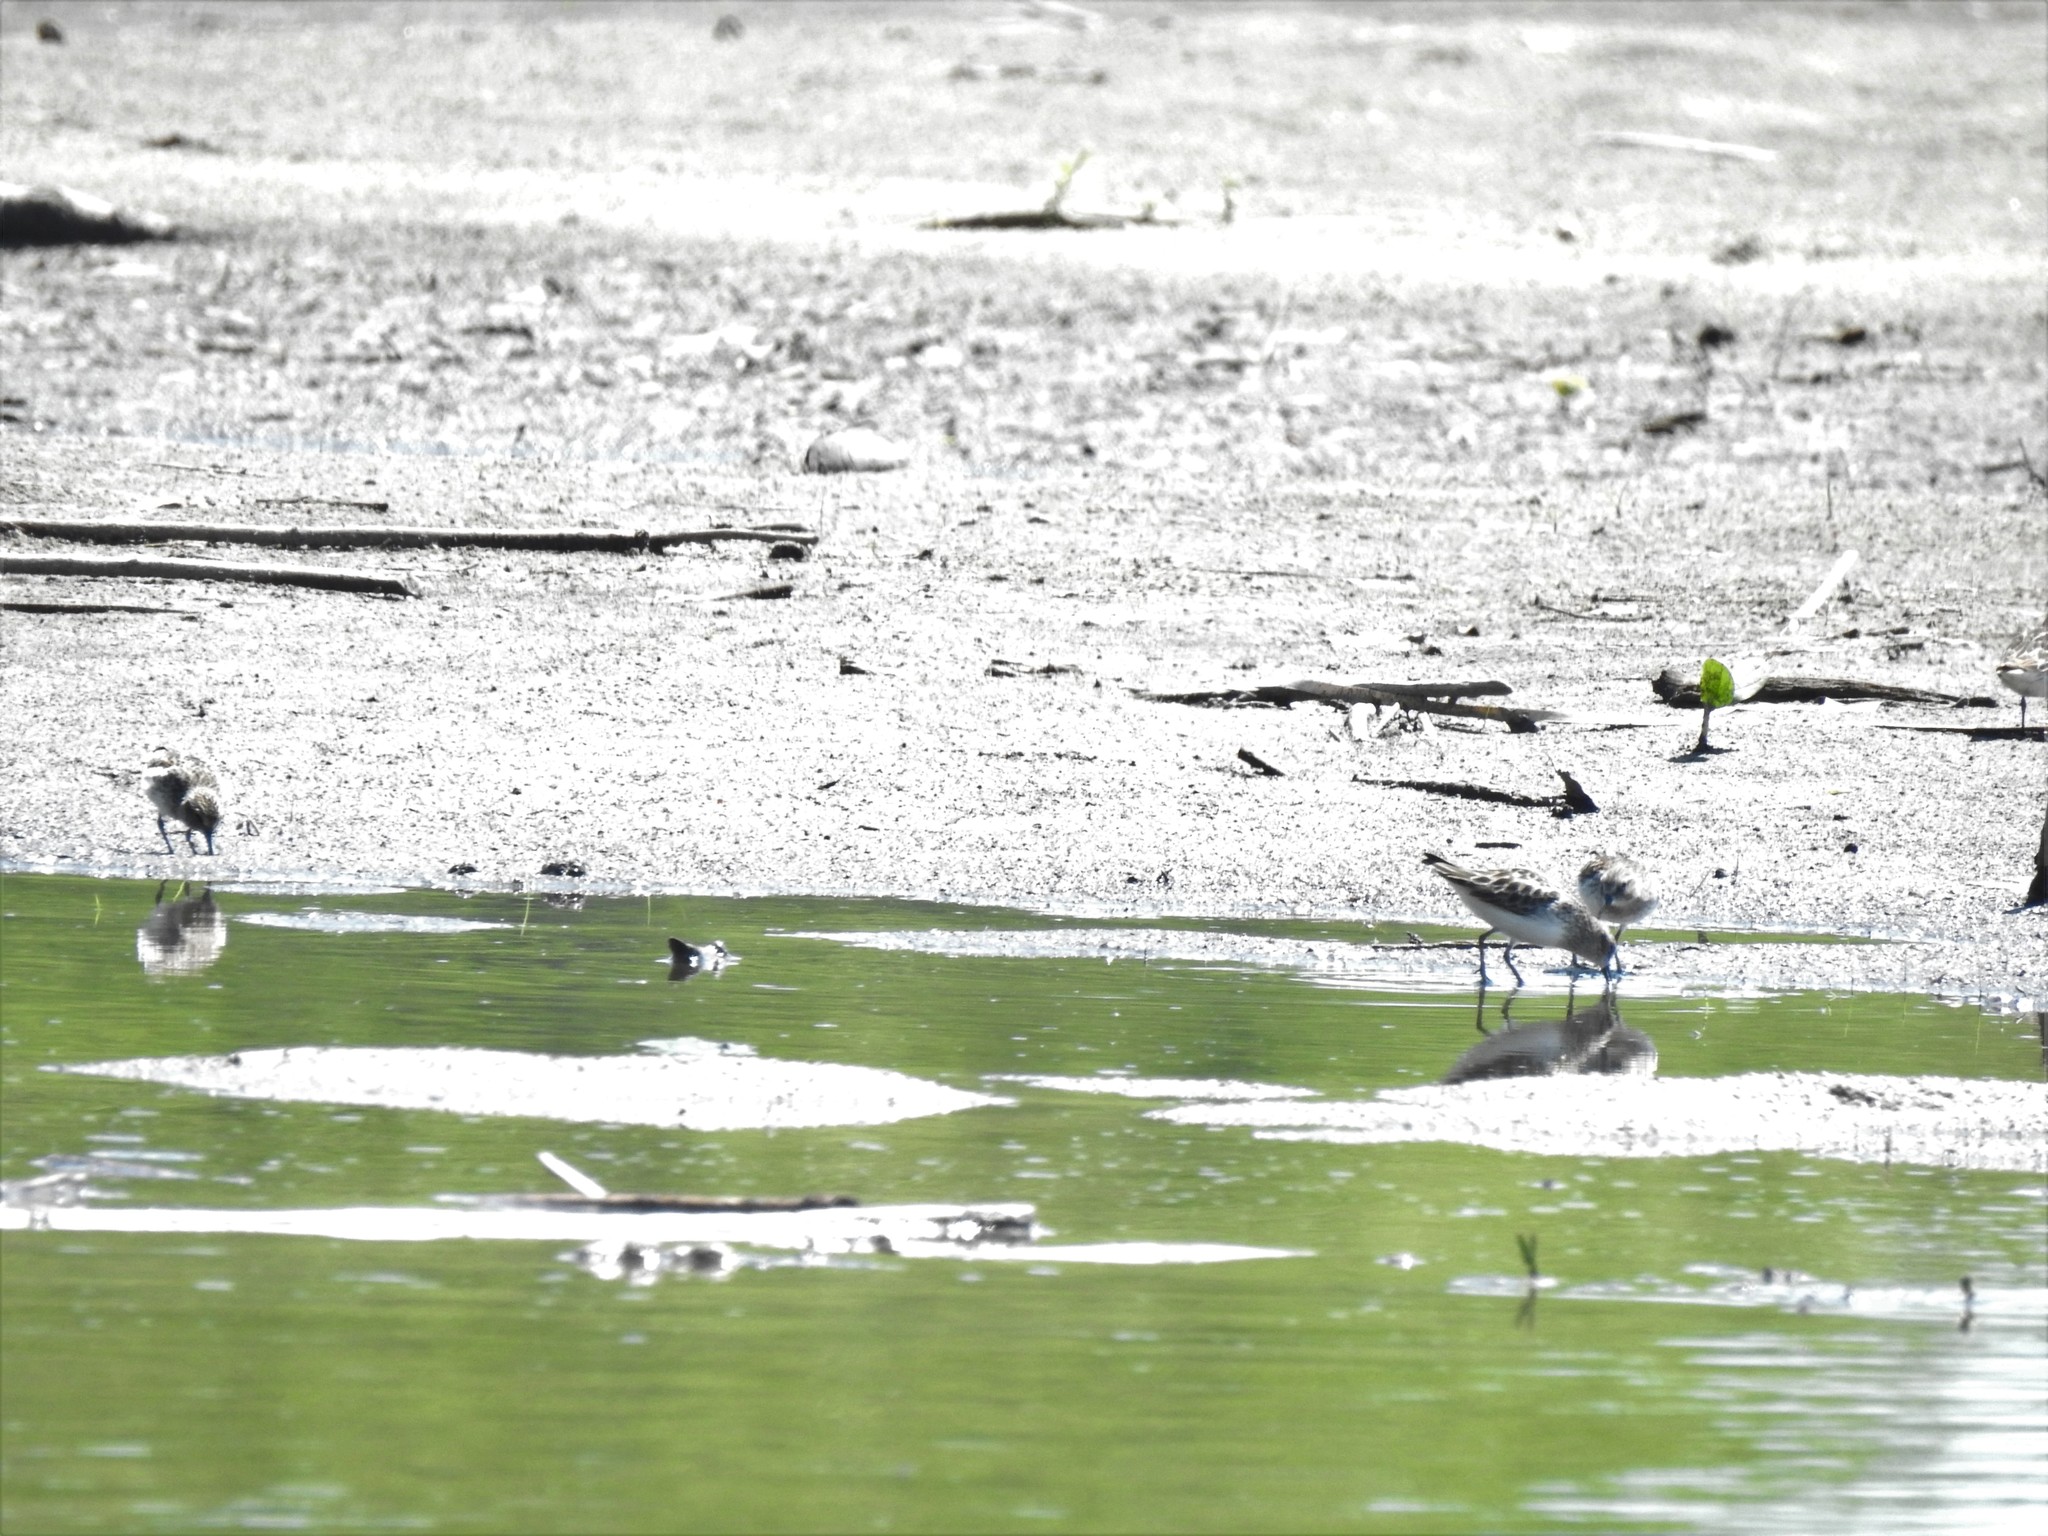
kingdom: Animalia
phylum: Chordata
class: Aves
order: Charadriiformes
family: Scolopacidae
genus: Calidris
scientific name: Calidris minutilla
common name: Least sandpiper
